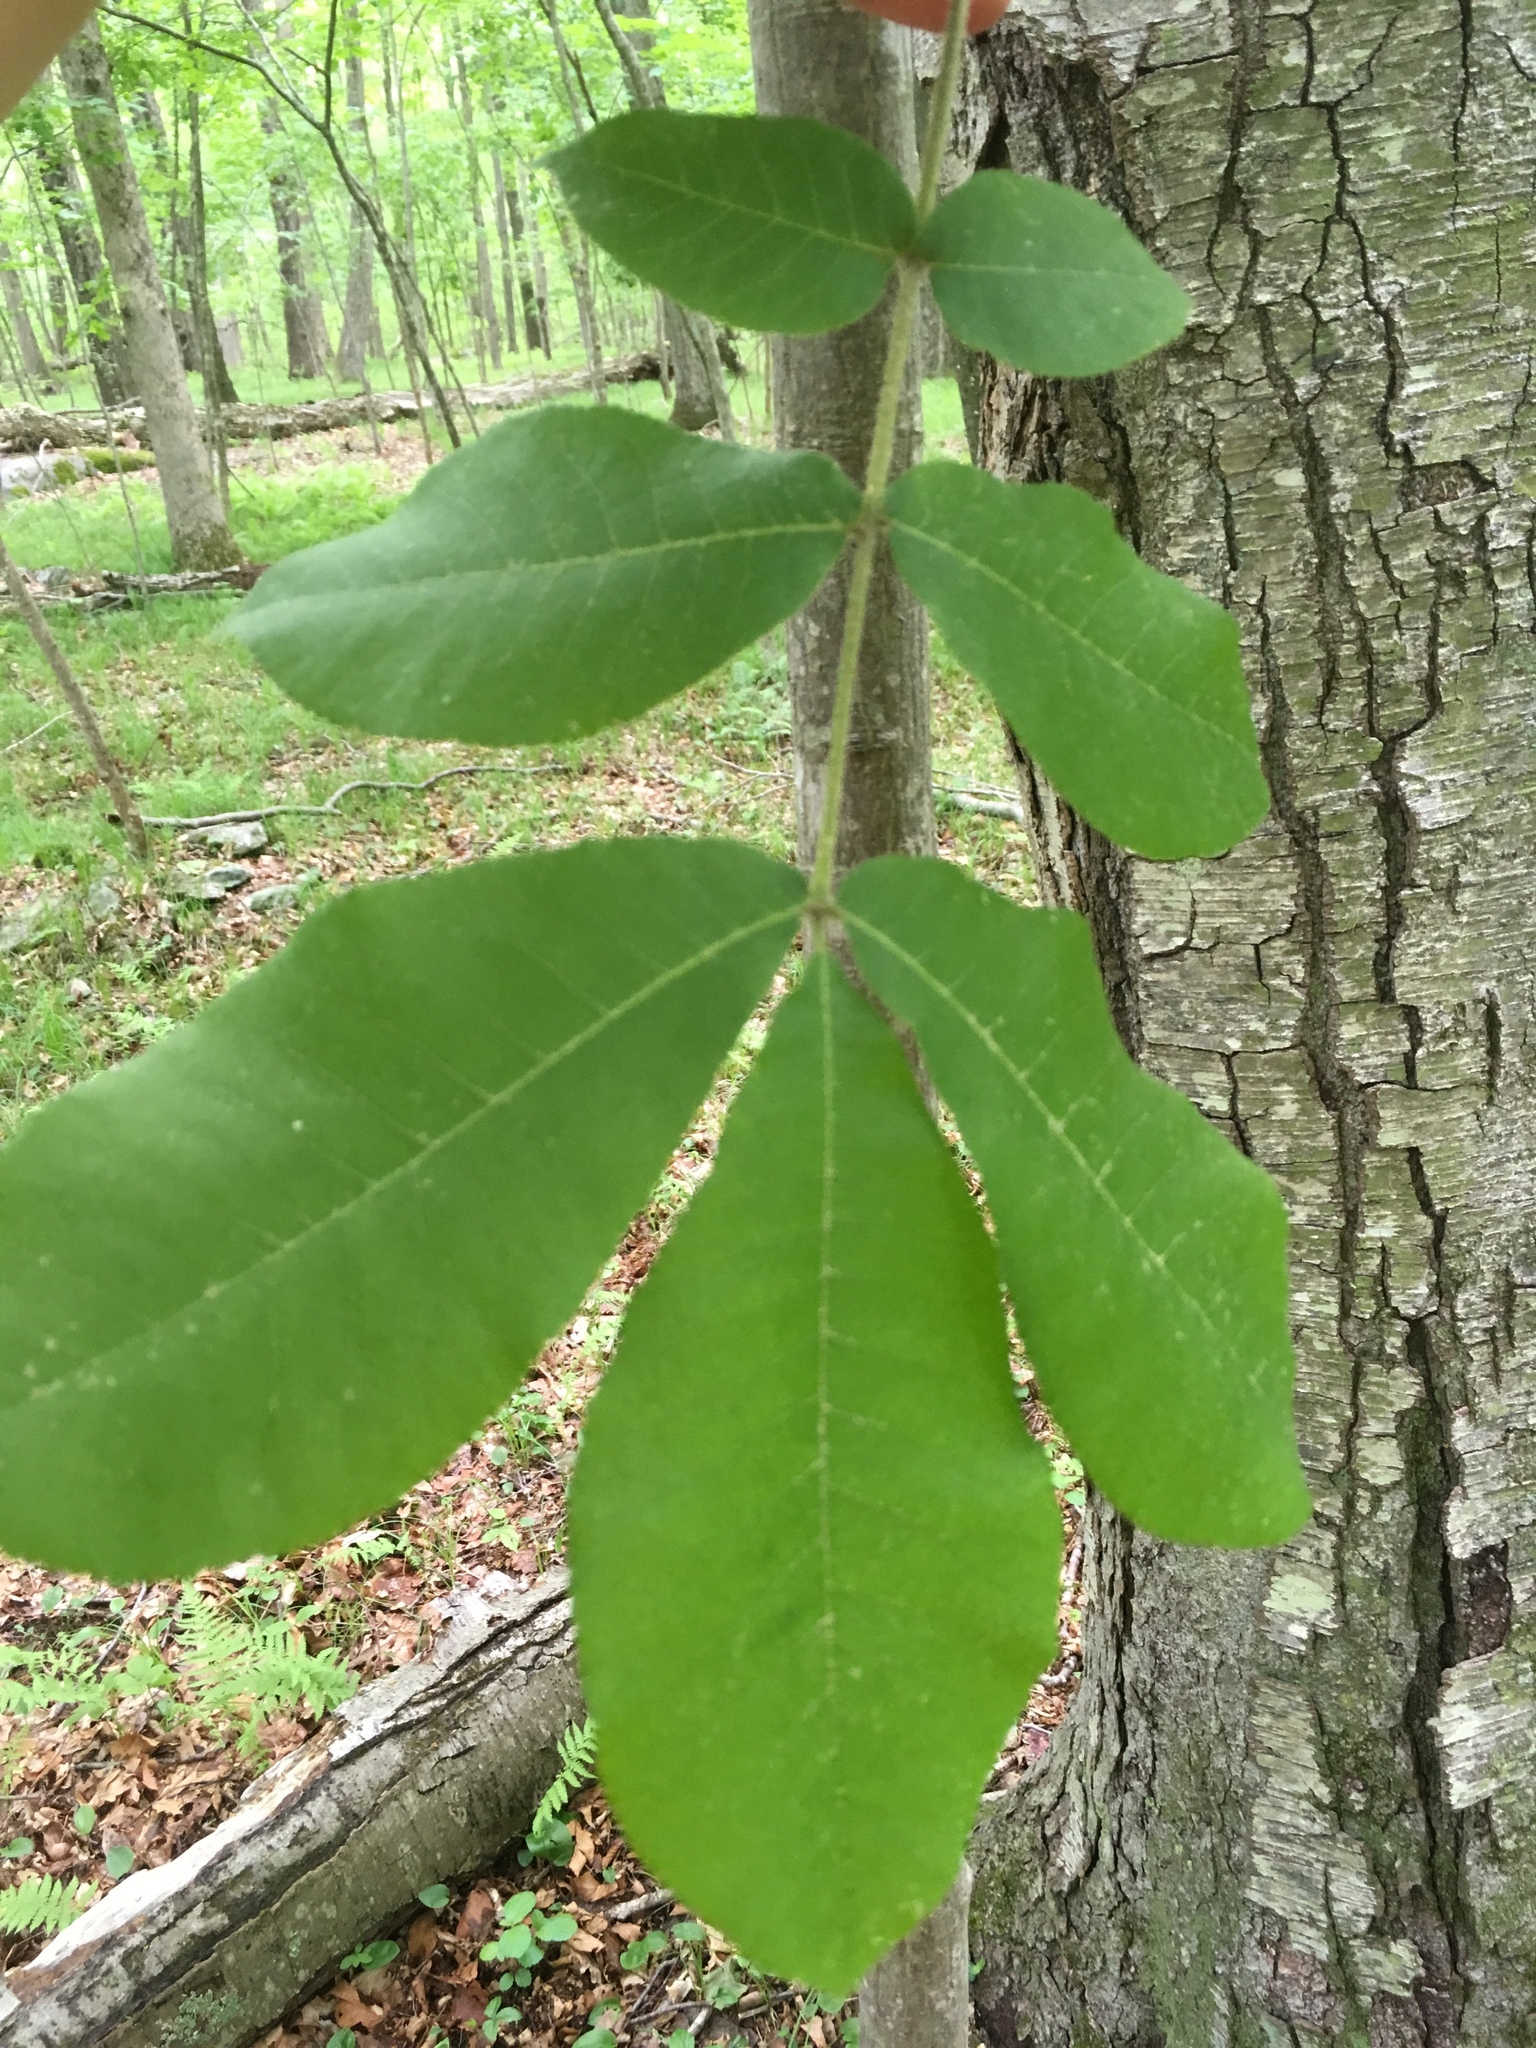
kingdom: Plantae
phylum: Tracheophyta
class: Magnoliopsida
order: Fagales
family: Juglandaceae
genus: Carya
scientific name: Carya ovalis
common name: False shagbark
